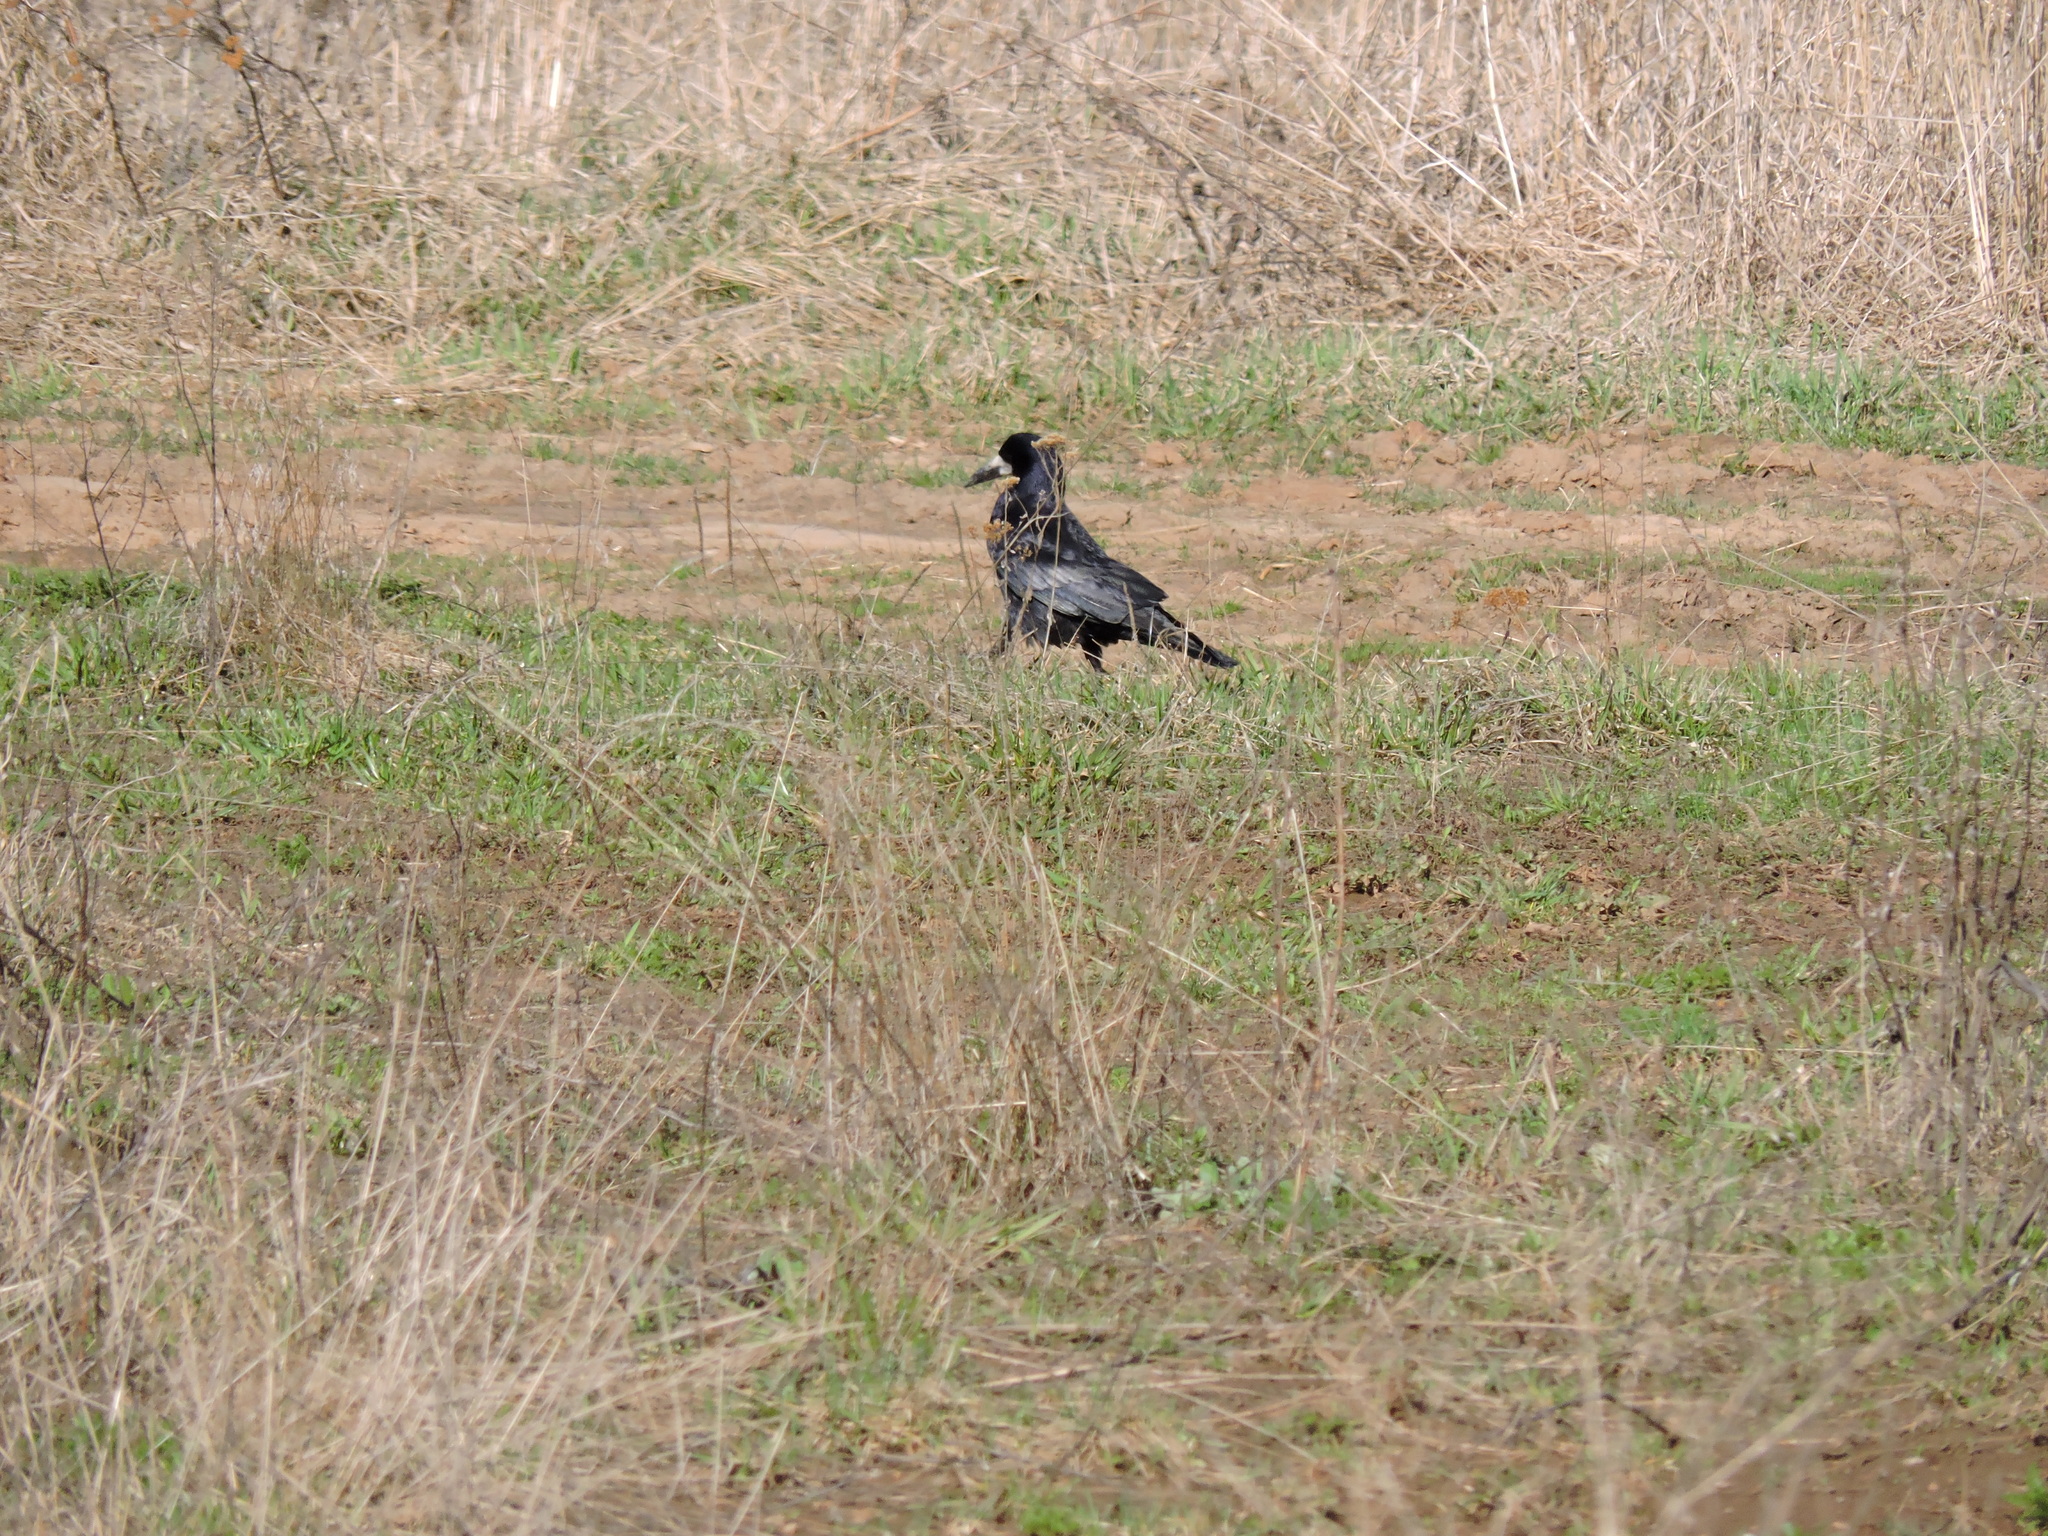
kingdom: Animalia
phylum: Chordata
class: Aves
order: Passeriformes
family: Corvidae
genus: Corvus
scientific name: Corvus frugilegus
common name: Rook
